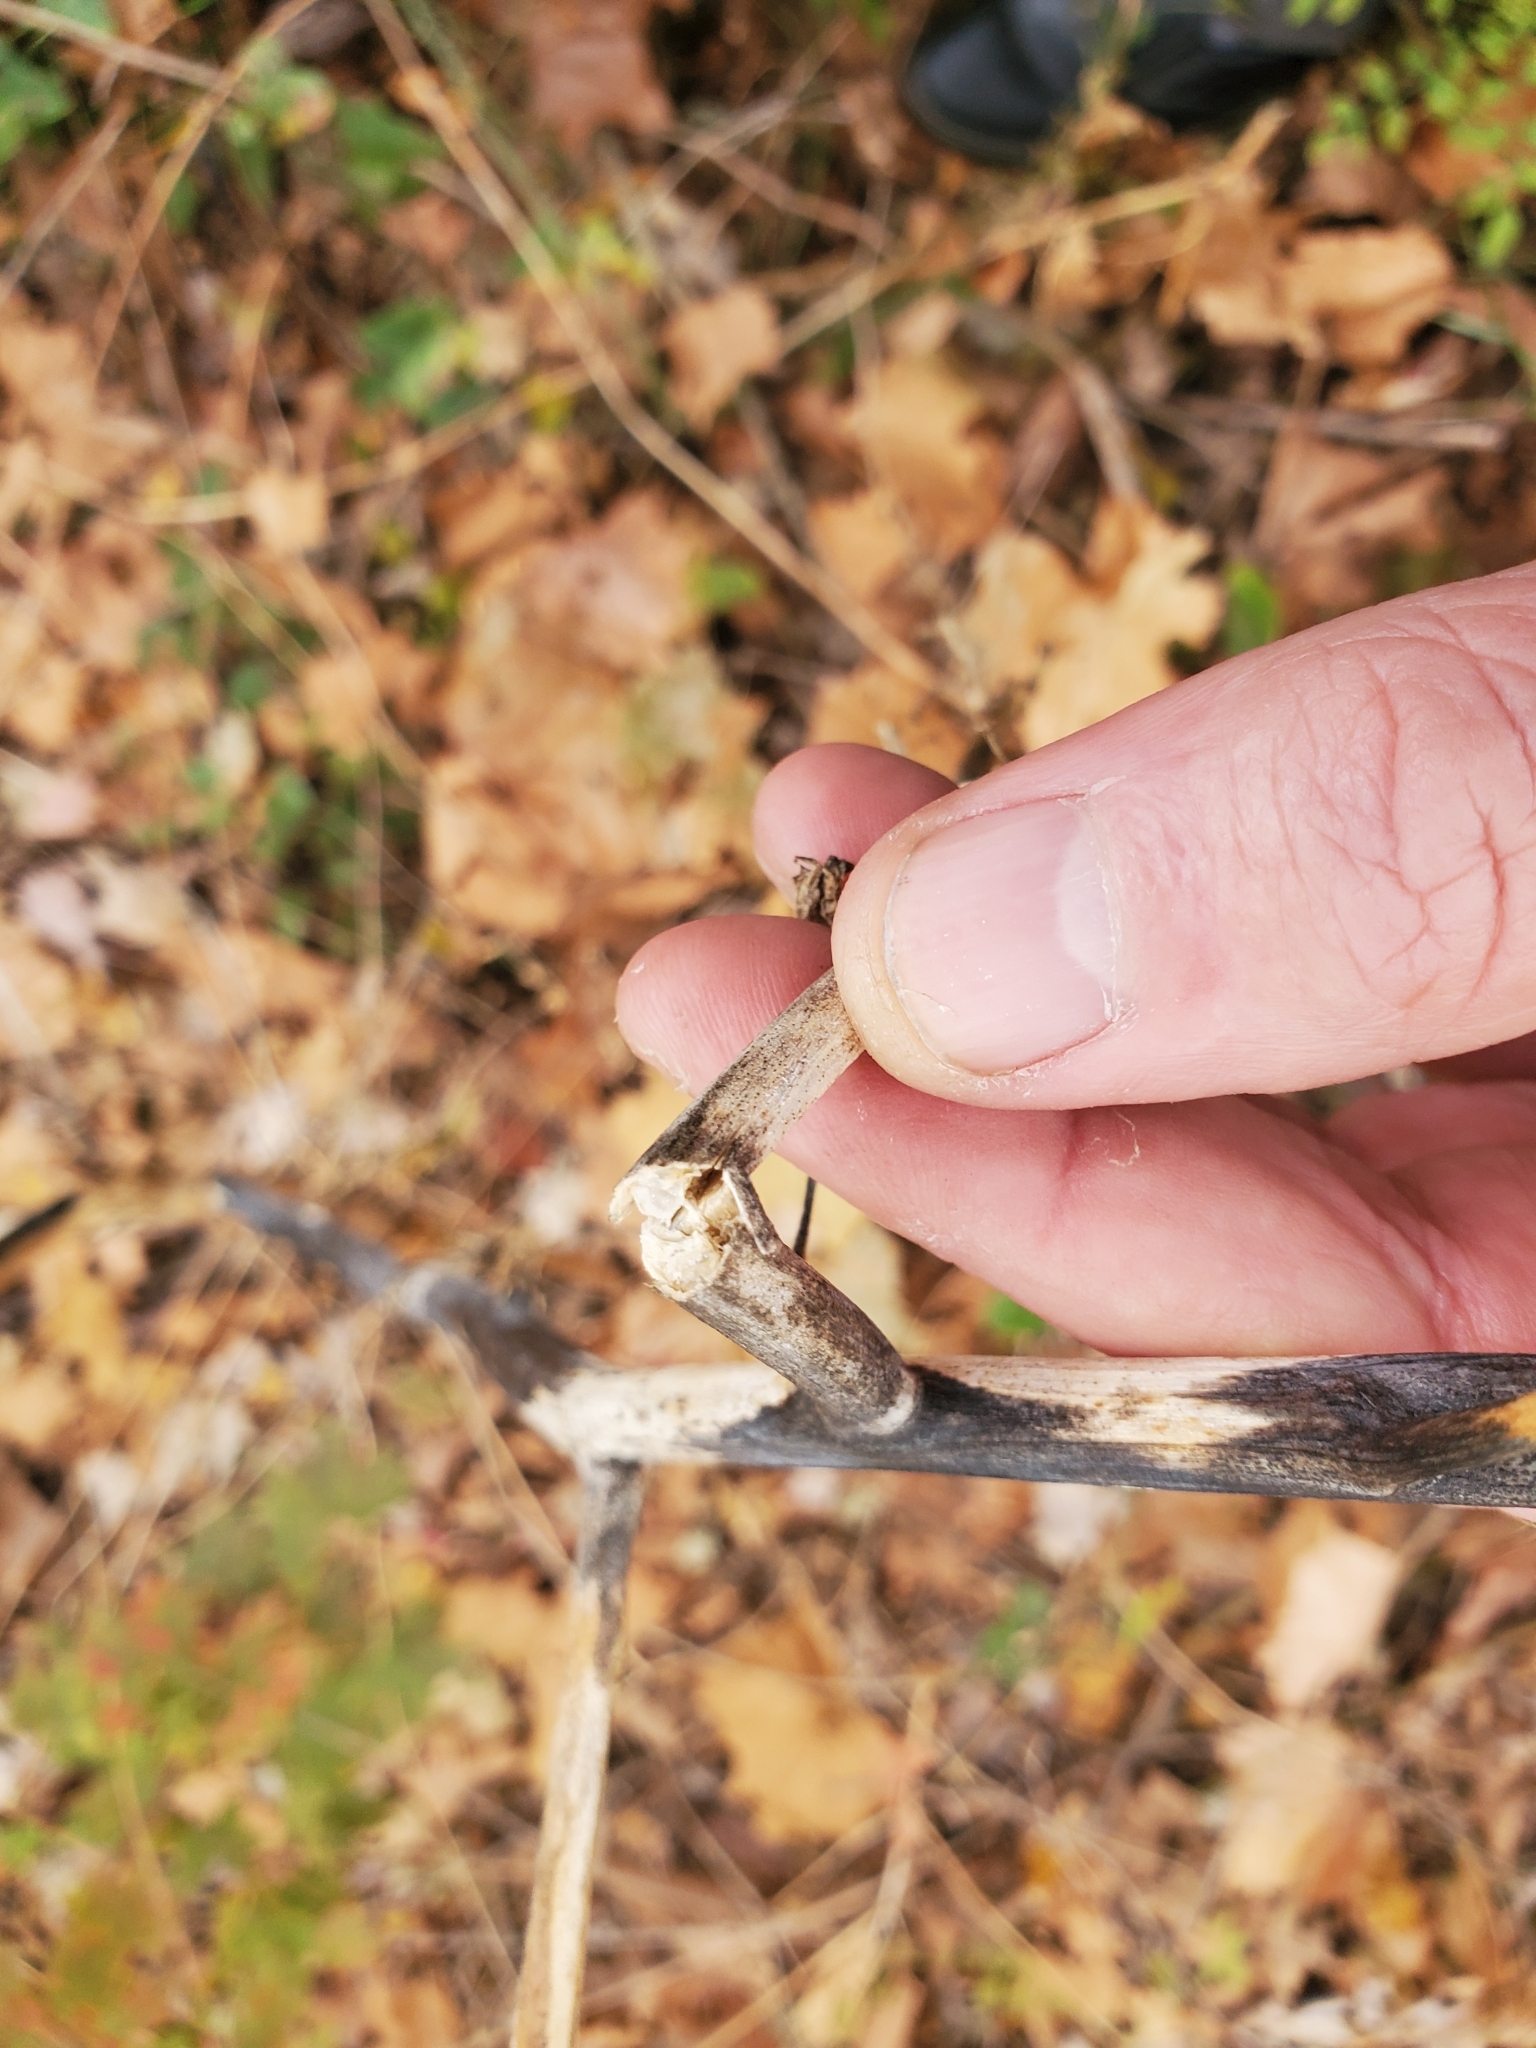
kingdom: Plantae
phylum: Tracheophyta
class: Magnoliopsida
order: Caryophyllales
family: Phytolaccaceae
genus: Phytolacca
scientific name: Phytolacca americana
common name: American pokeweed
